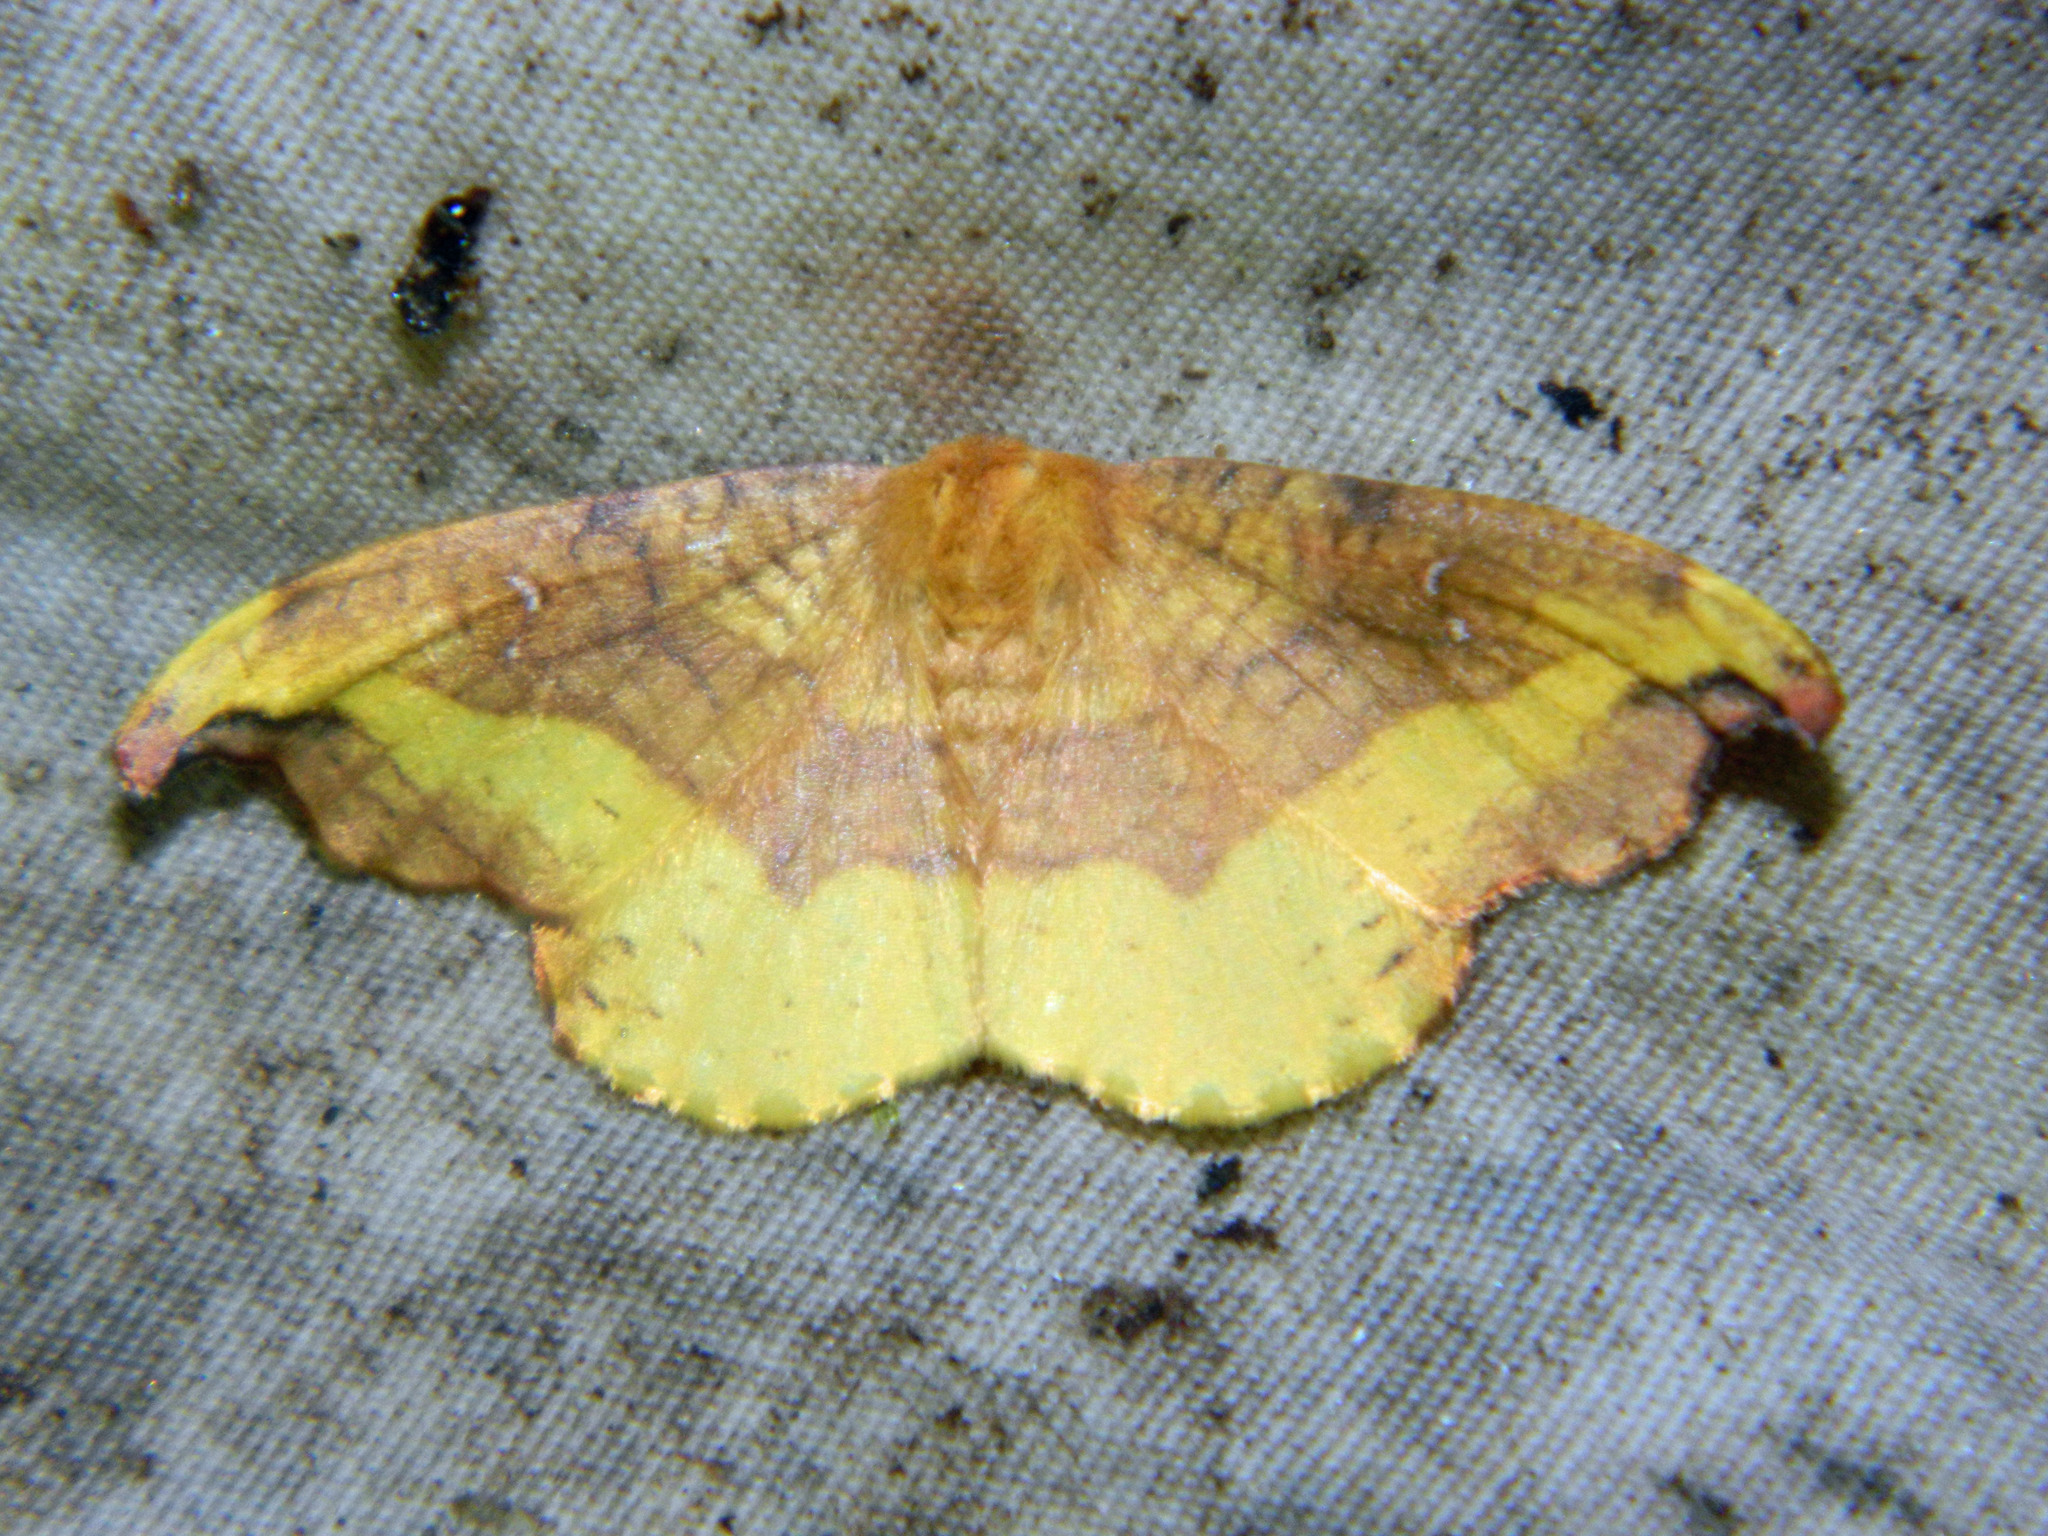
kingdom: Animalia
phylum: Arthropoda
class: Insecta
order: Lepidoptera
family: Drepanidae
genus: Oreta
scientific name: Oreta rosea
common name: Rose hooktip
